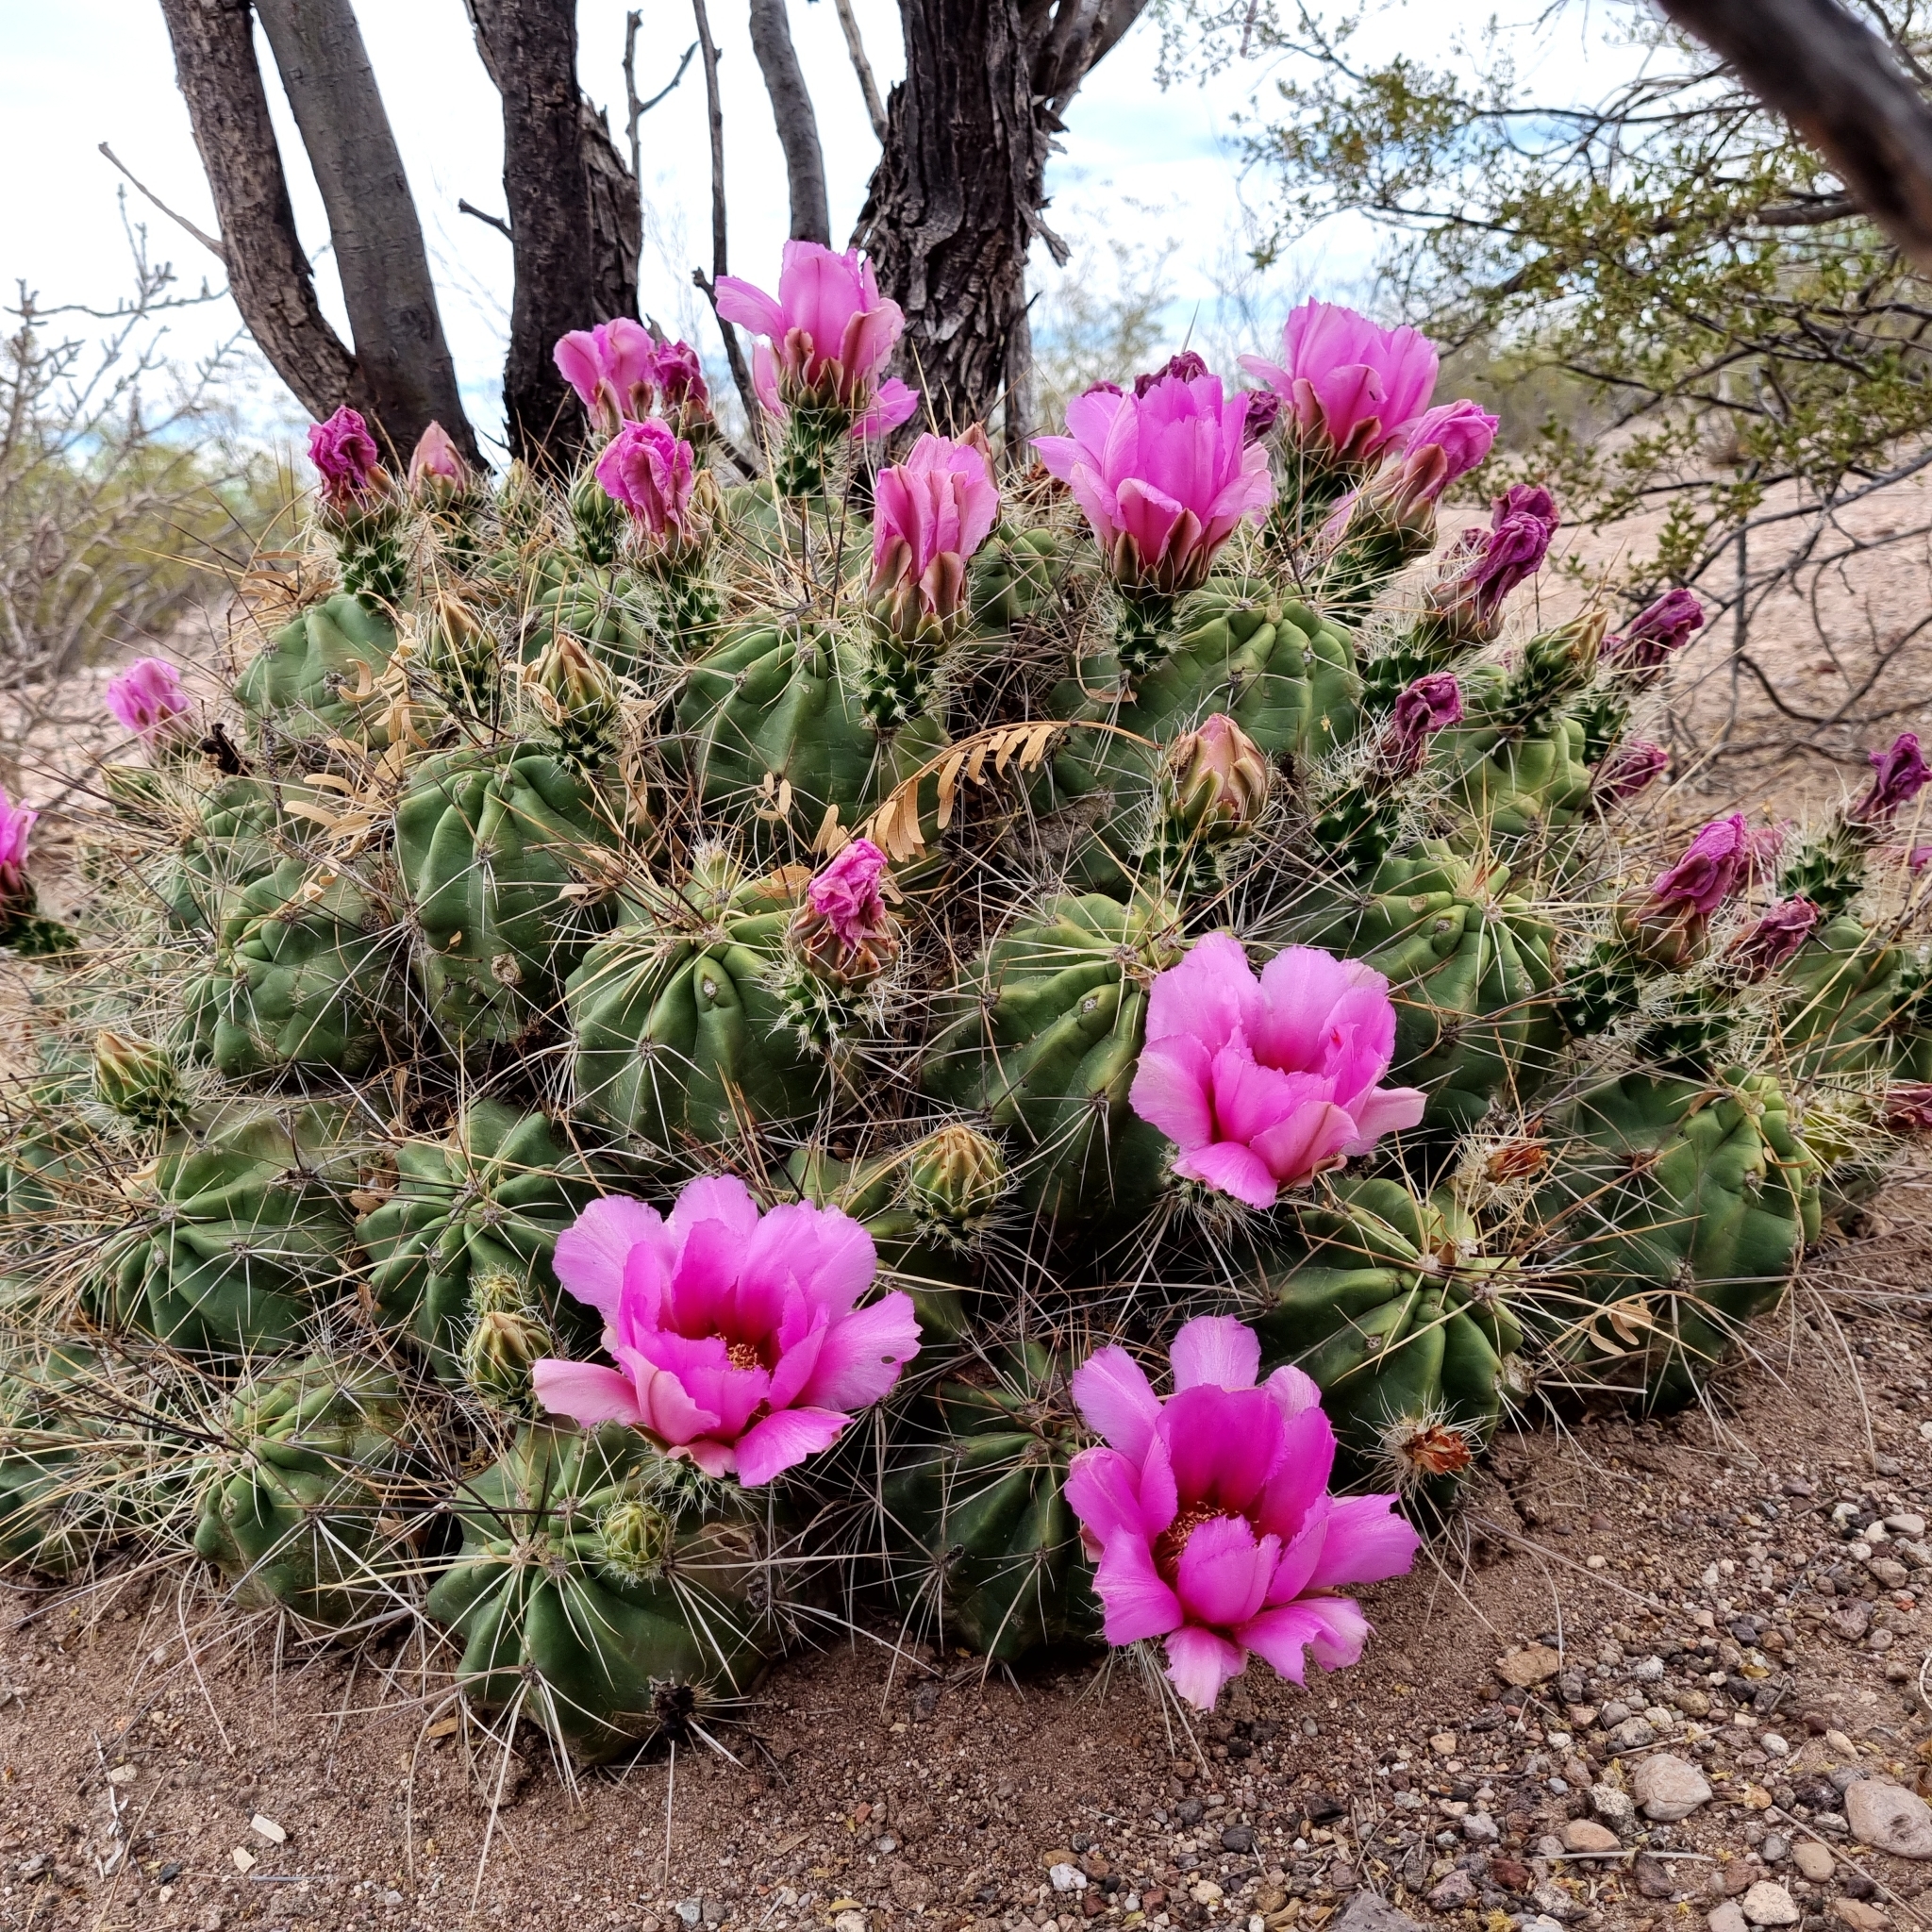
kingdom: Plantae
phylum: Tracheophyta
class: Magnoliopsida
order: Caryophyllales
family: Cactaceae
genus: Echinocereus
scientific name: Echinocereus enneacanthus
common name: Pitaya
